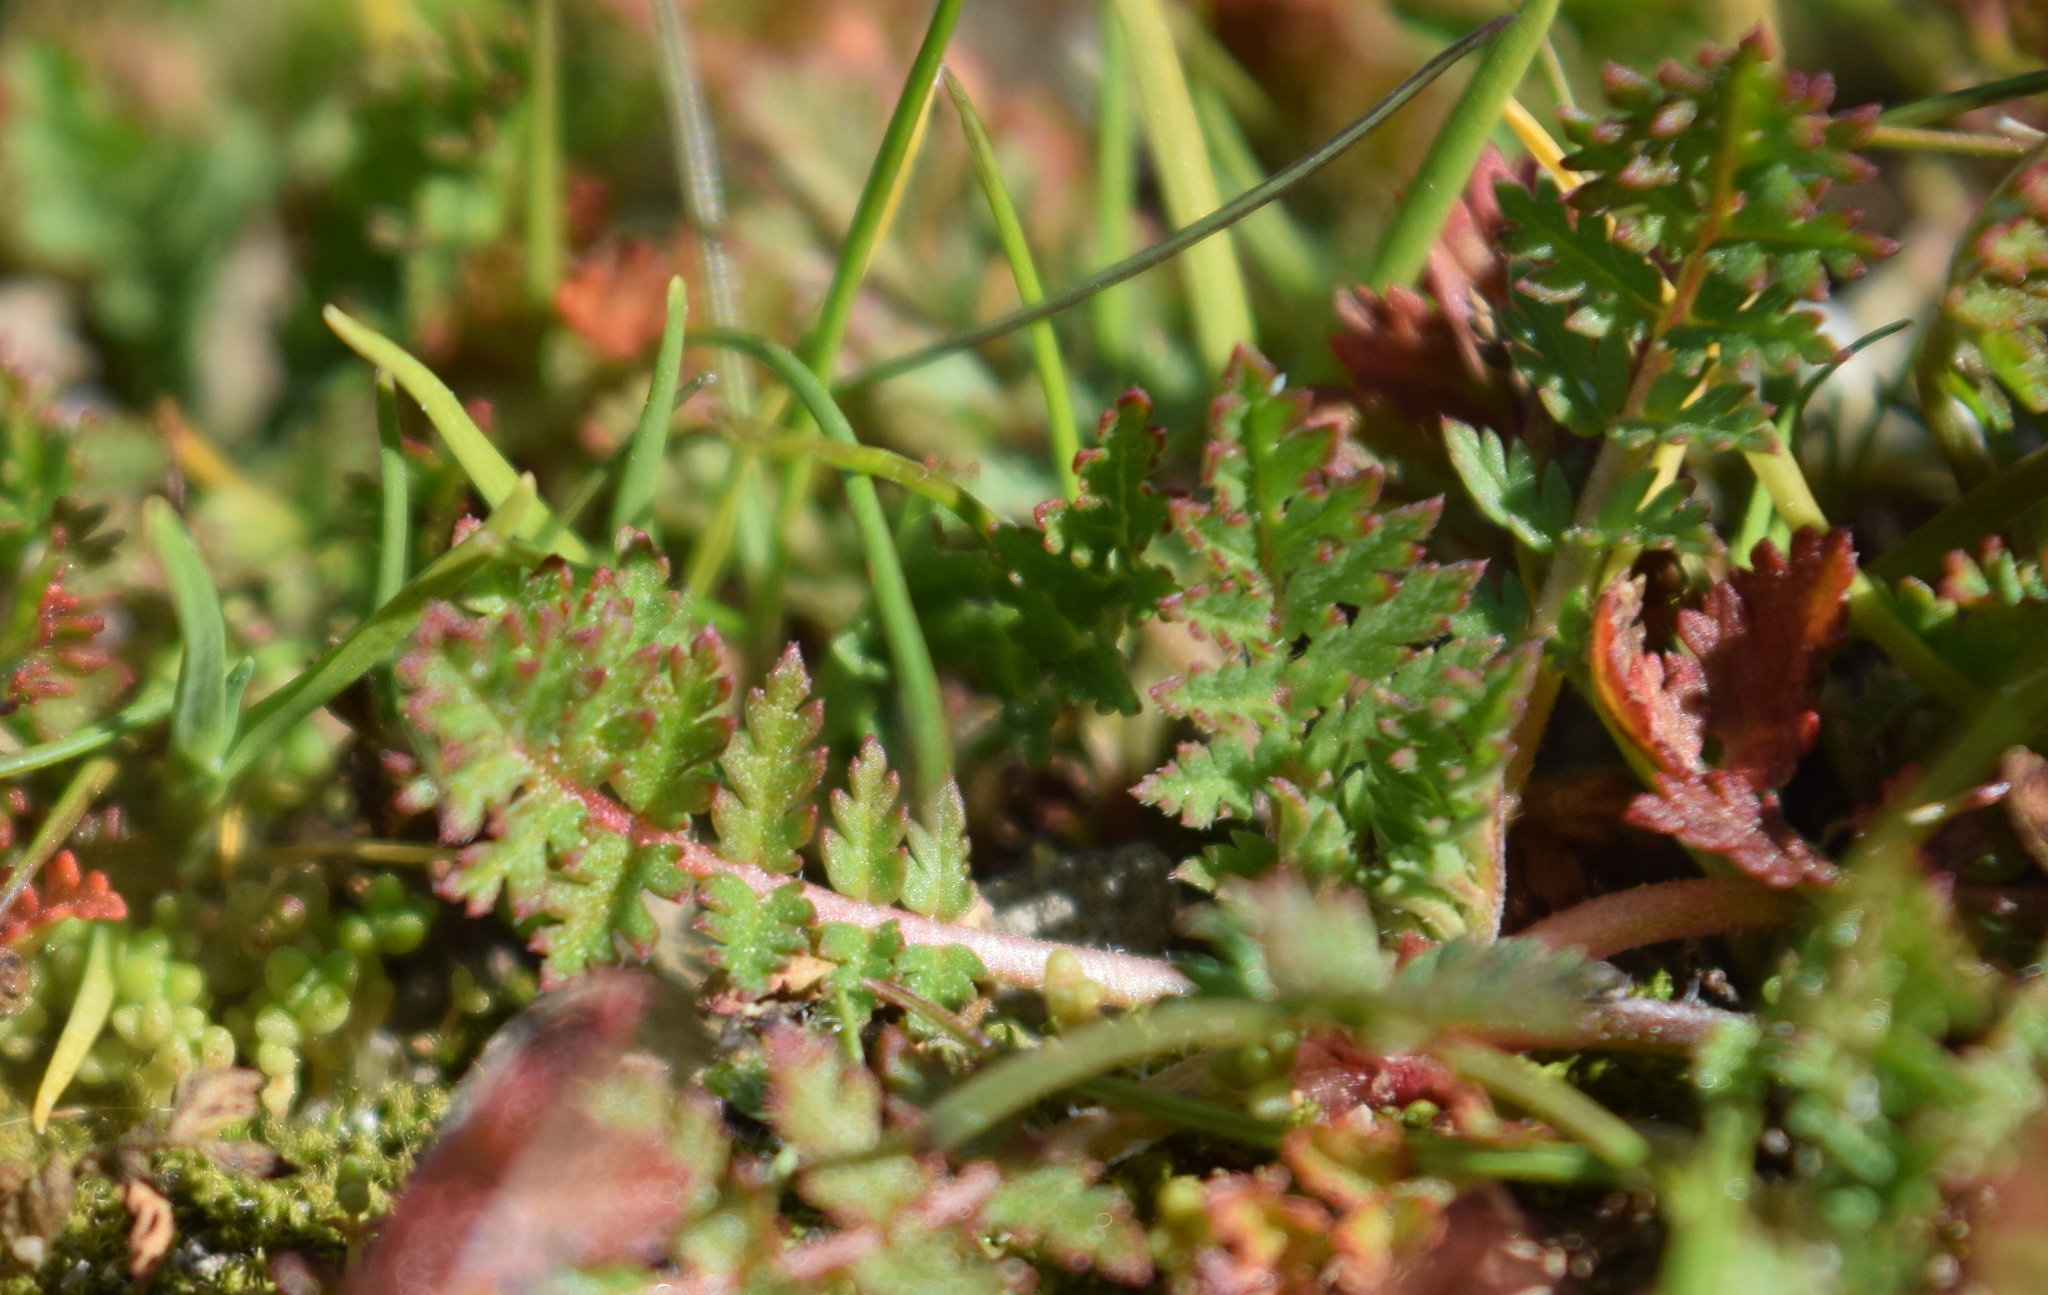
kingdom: Plantae
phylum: Tracheophyta
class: Magnoliopsida
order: Geraniales
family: Geraniaceae
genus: Erodium
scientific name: Erodium cicutarium
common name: Common stork's-bill
